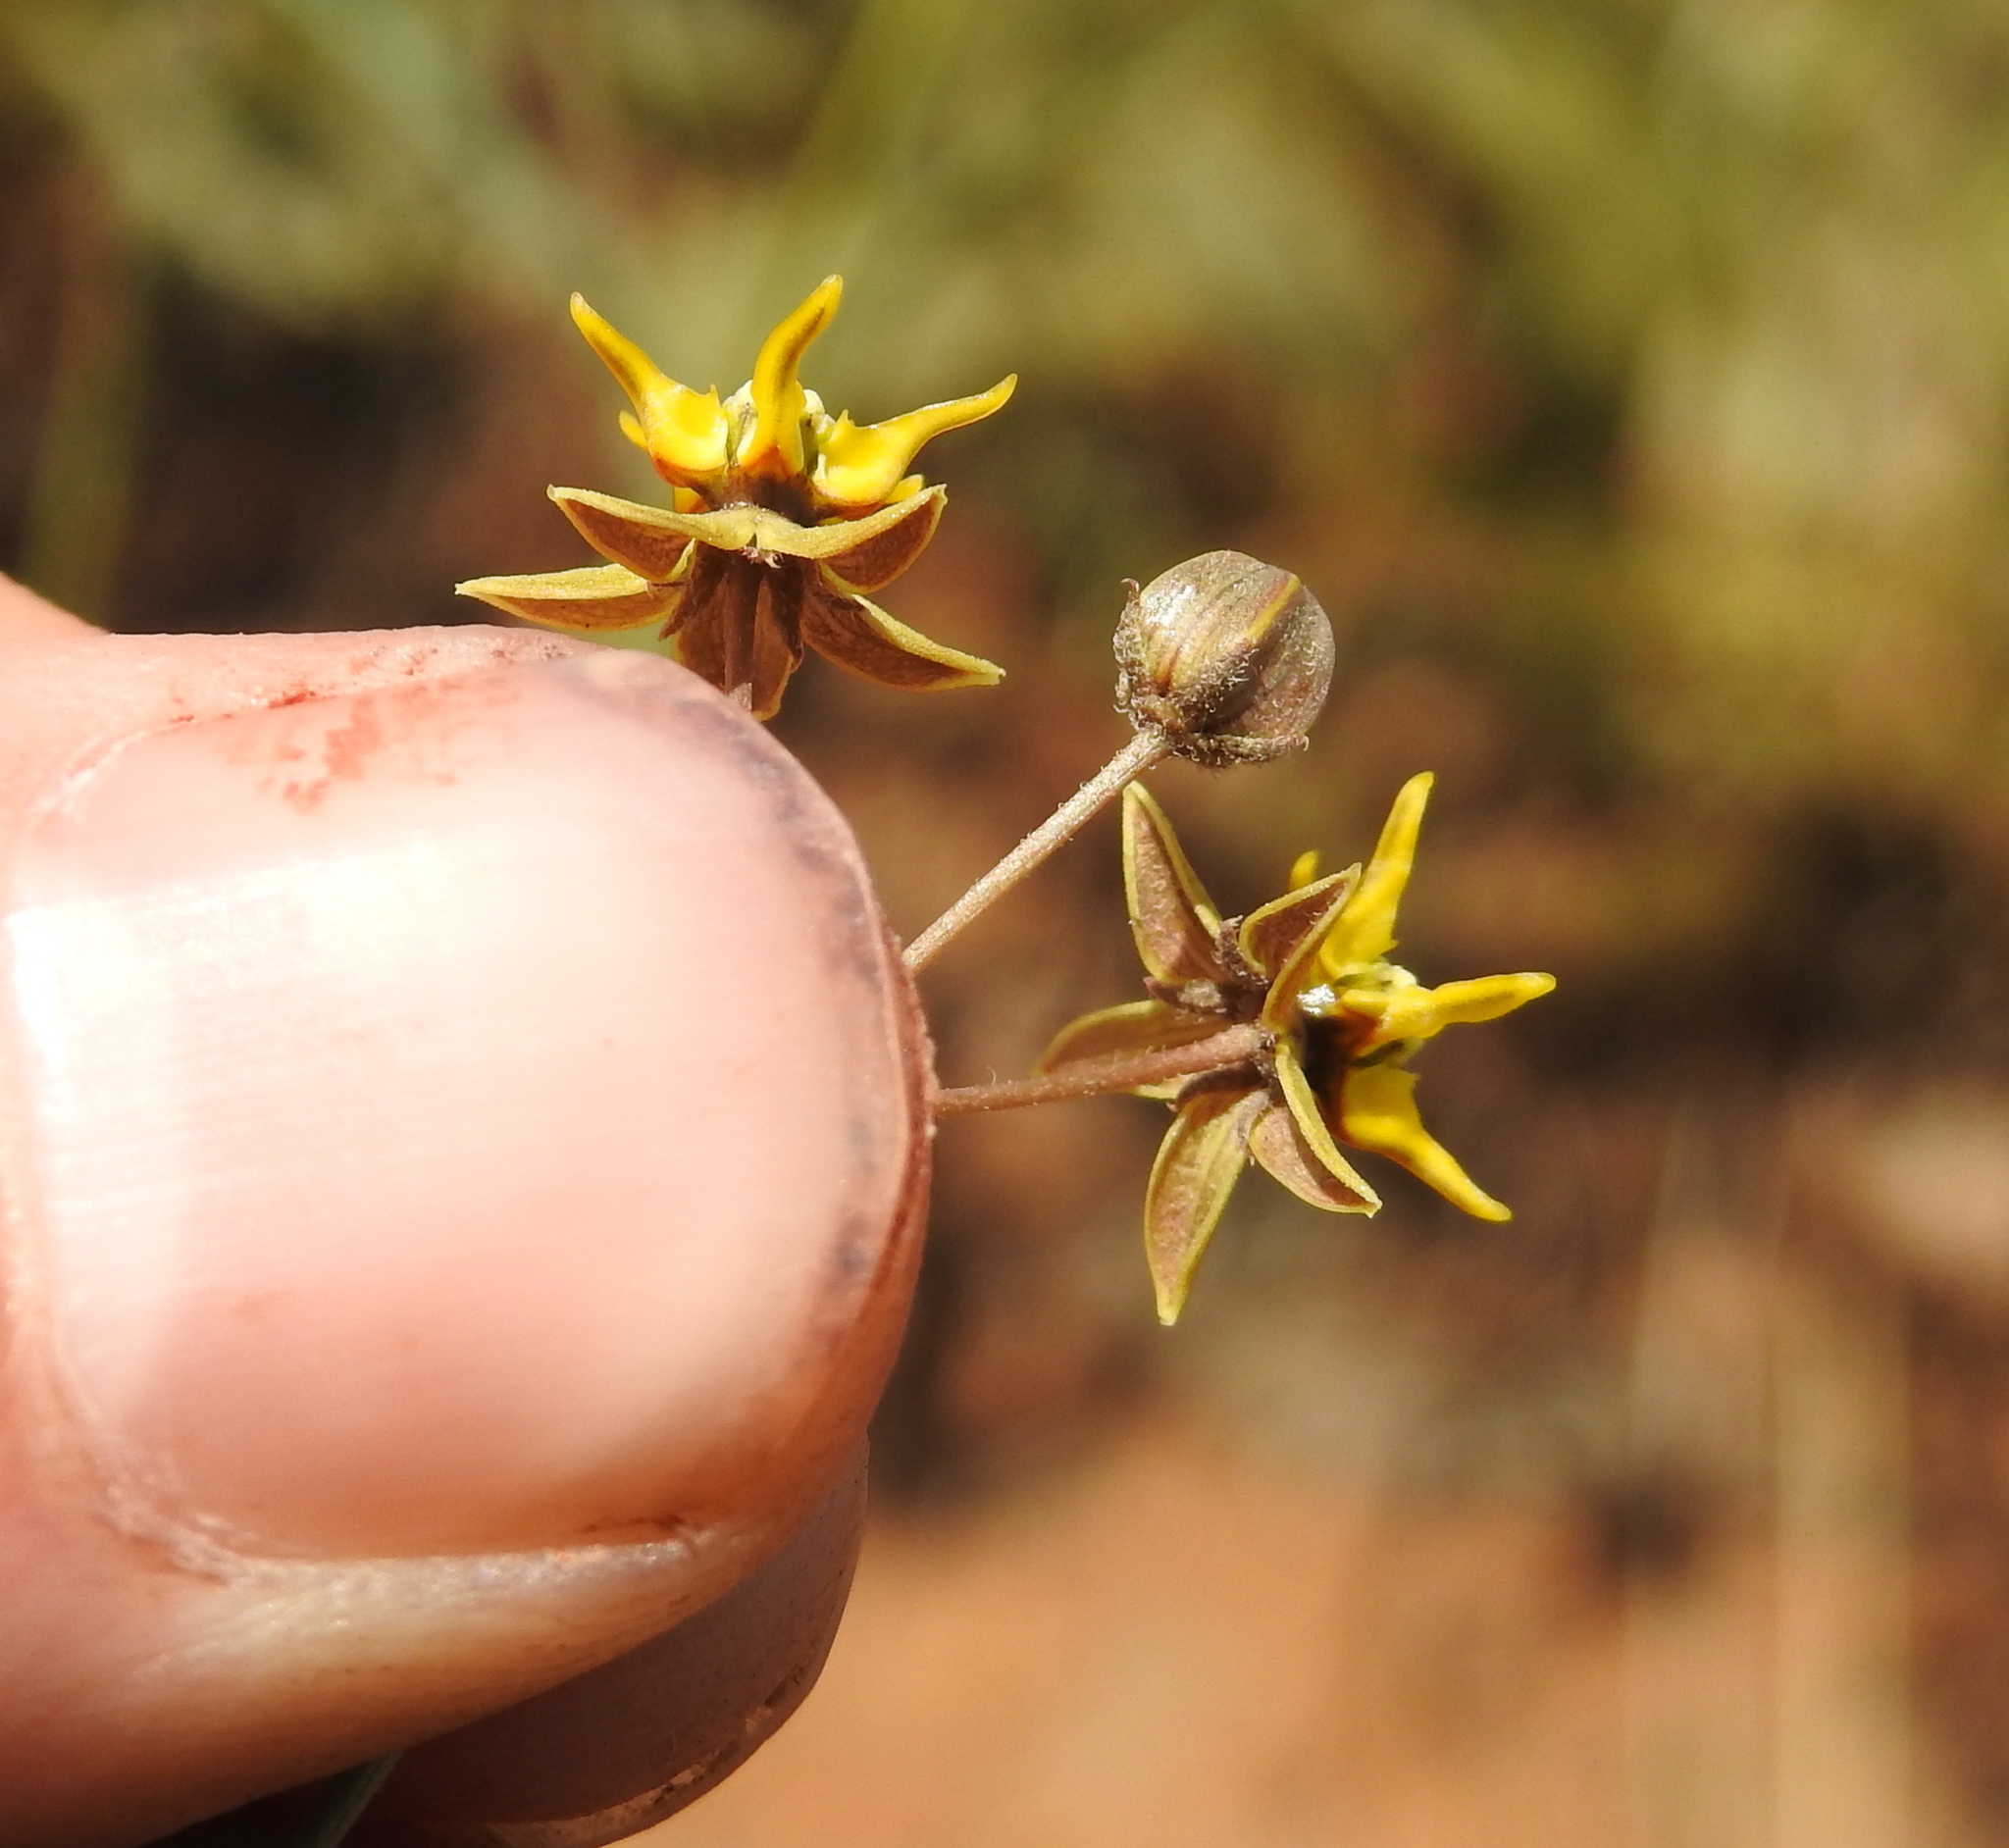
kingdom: Plantae
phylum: Tracheophyta
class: Magnoliopsida
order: Gentianales
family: Apocynaceae
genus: Asclepias
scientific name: Asclepias aurea
